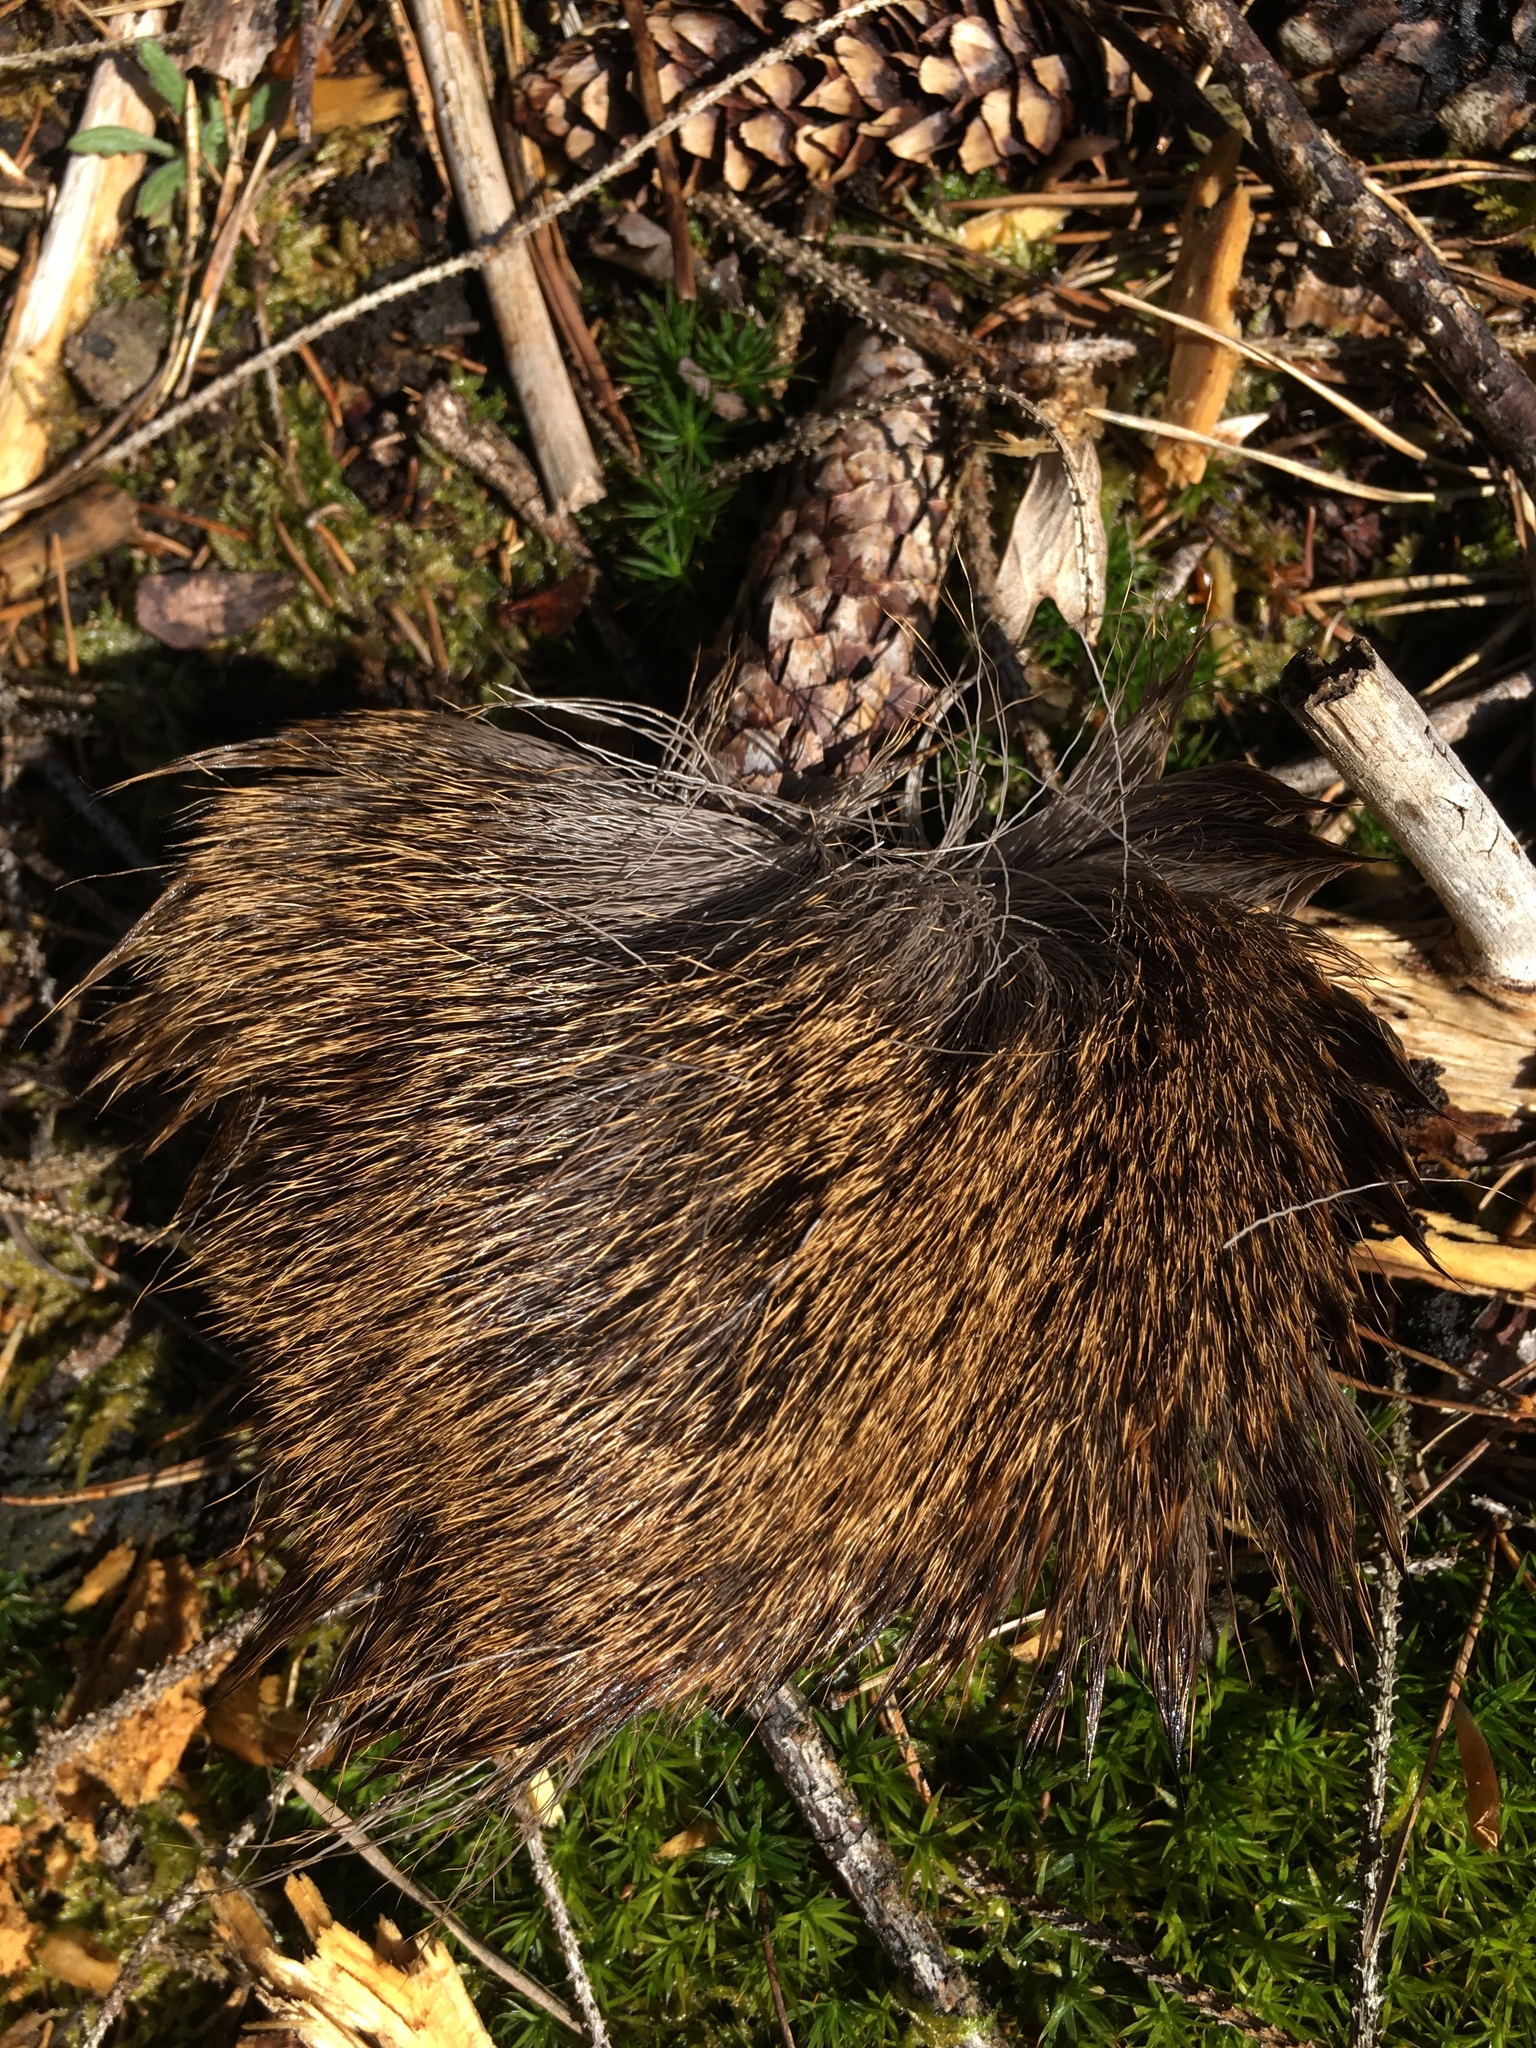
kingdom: Animalia
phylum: Chordata
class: Mammalia
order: Artiodactyla
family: Suidae
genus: Sus
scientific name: Sus scrofa
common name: Wild boar
